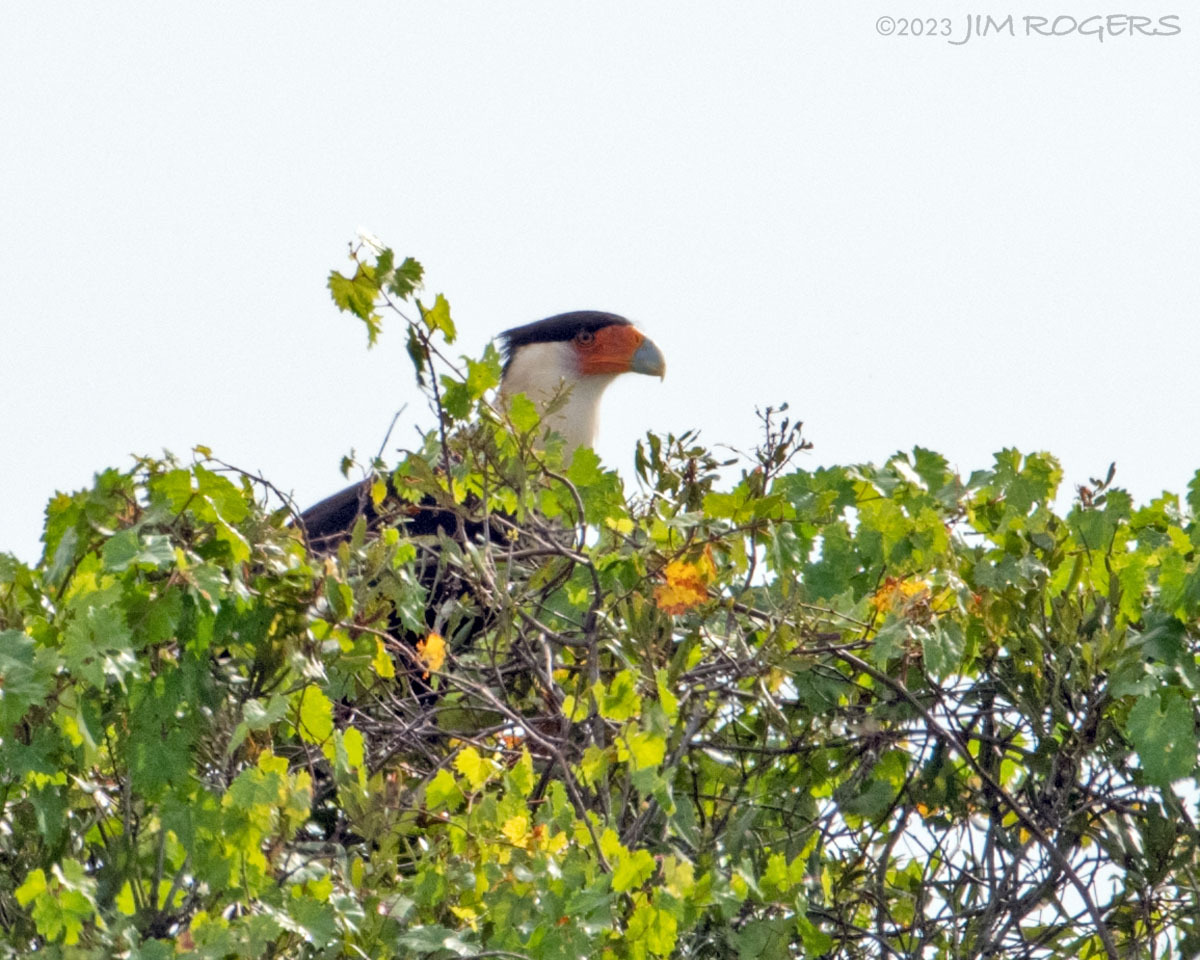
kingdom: Animalia
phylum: Chordata
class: Aves
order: Falconiformes
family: Falconidae
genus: Caracara
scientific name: Caracara plancus
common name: Southern caracara
